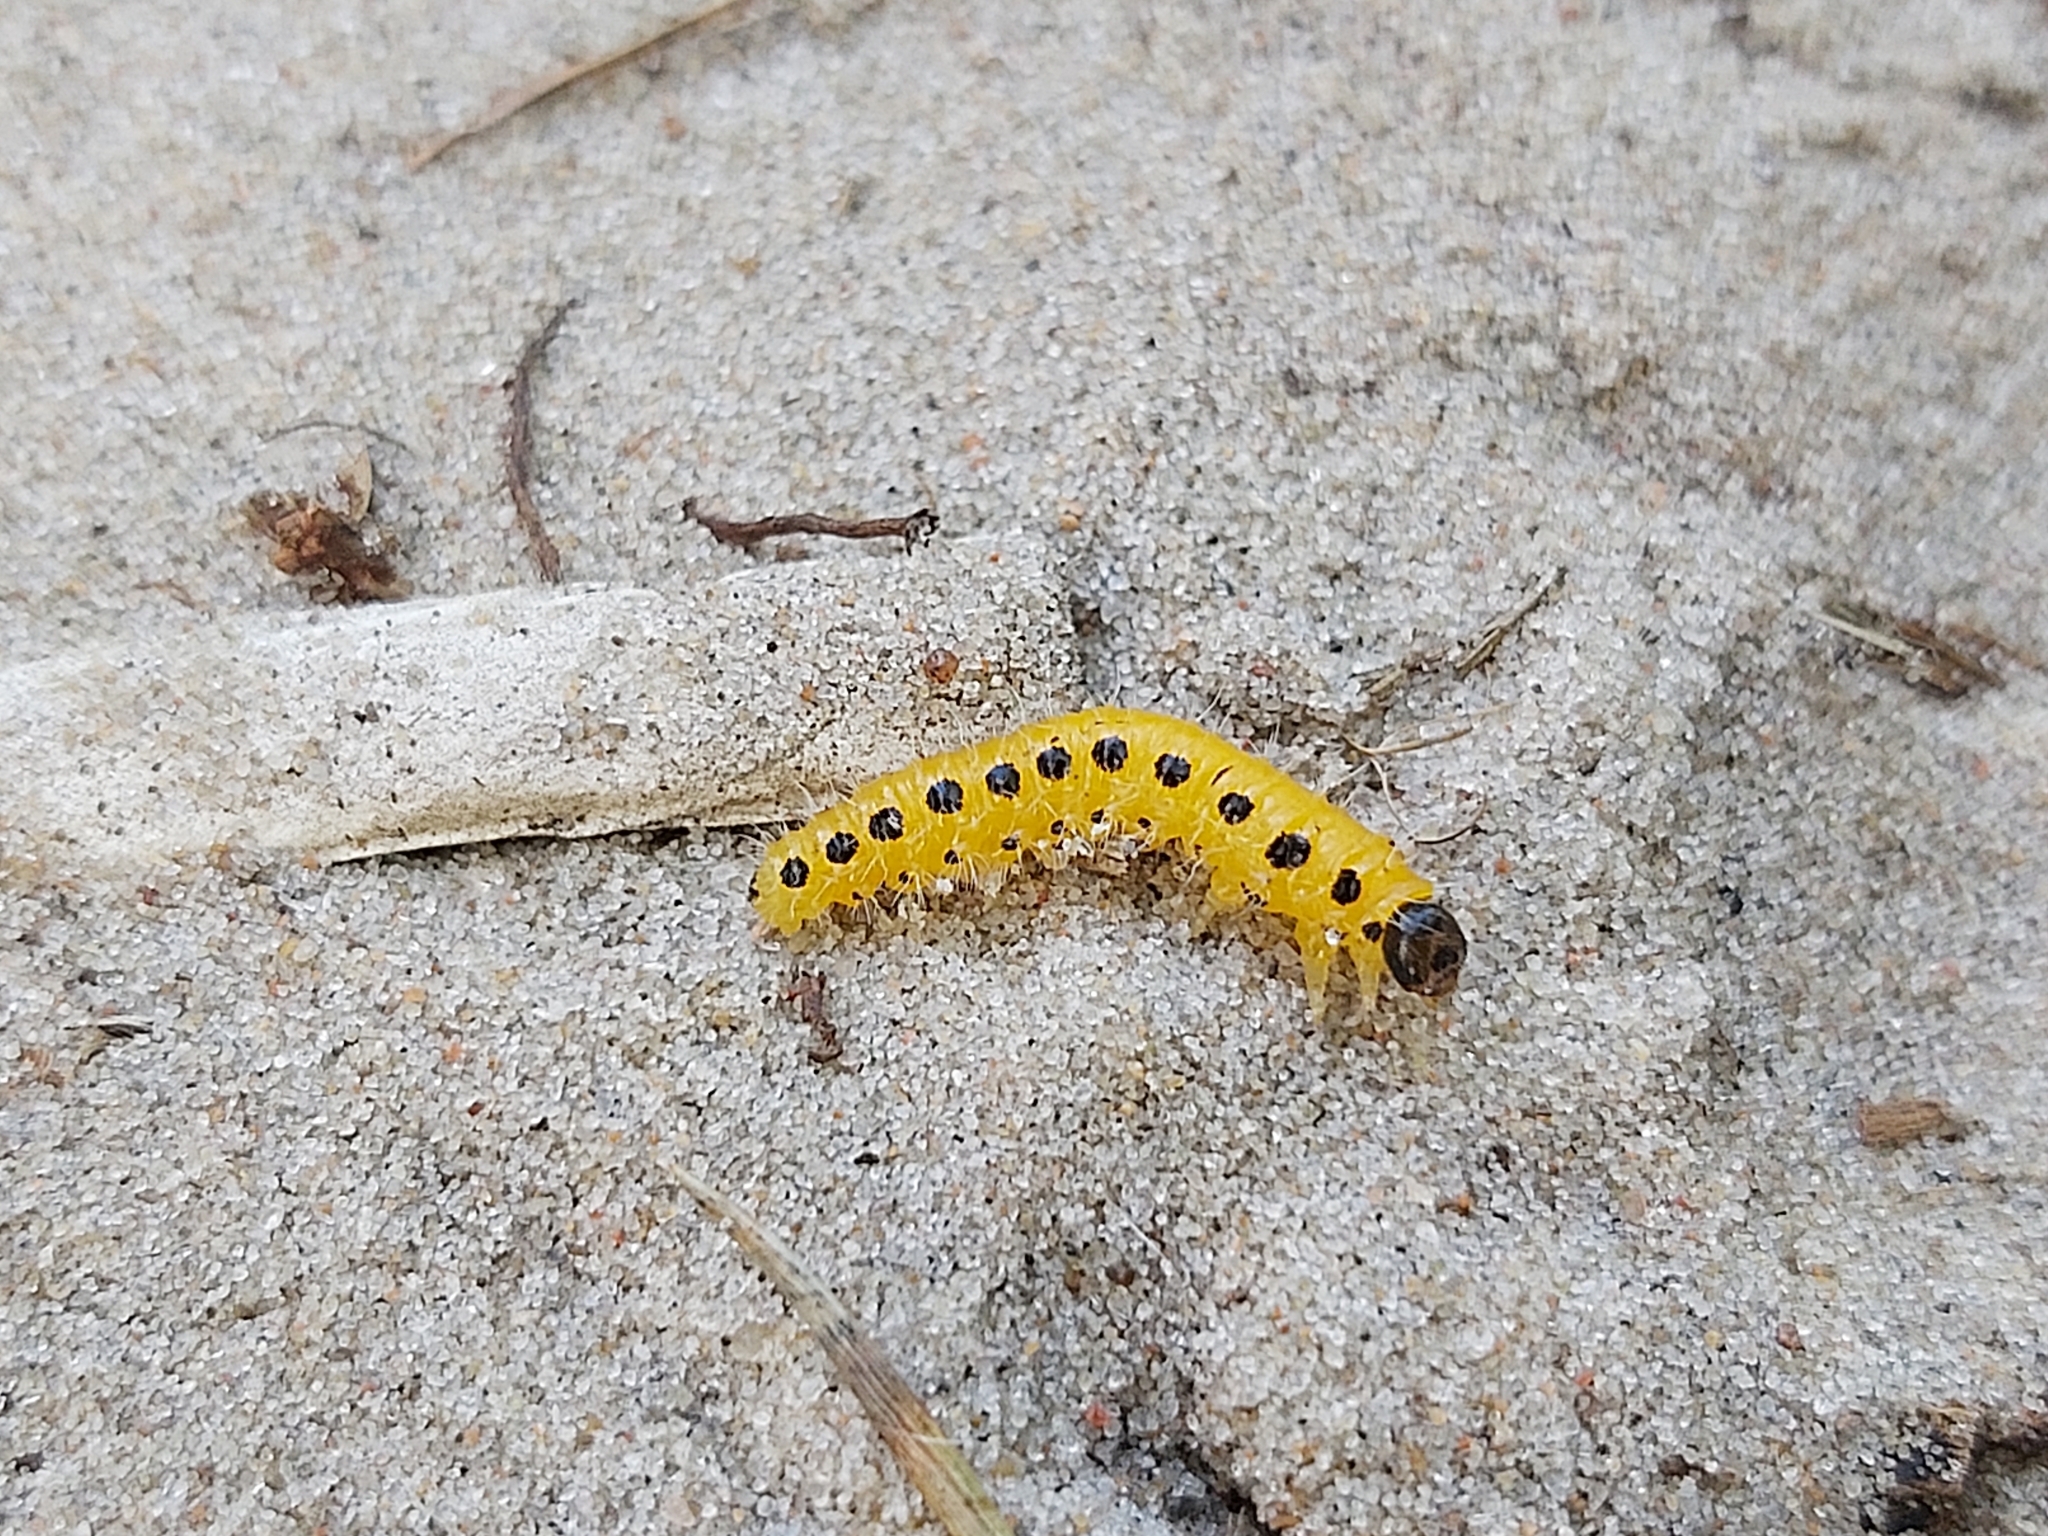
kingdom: Animalia
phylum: Arthropoda
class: Insecta
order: Hymenoptera
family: Tenthredinidae
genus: Cladius
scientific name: Cladius grandis
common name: Common sawfly
